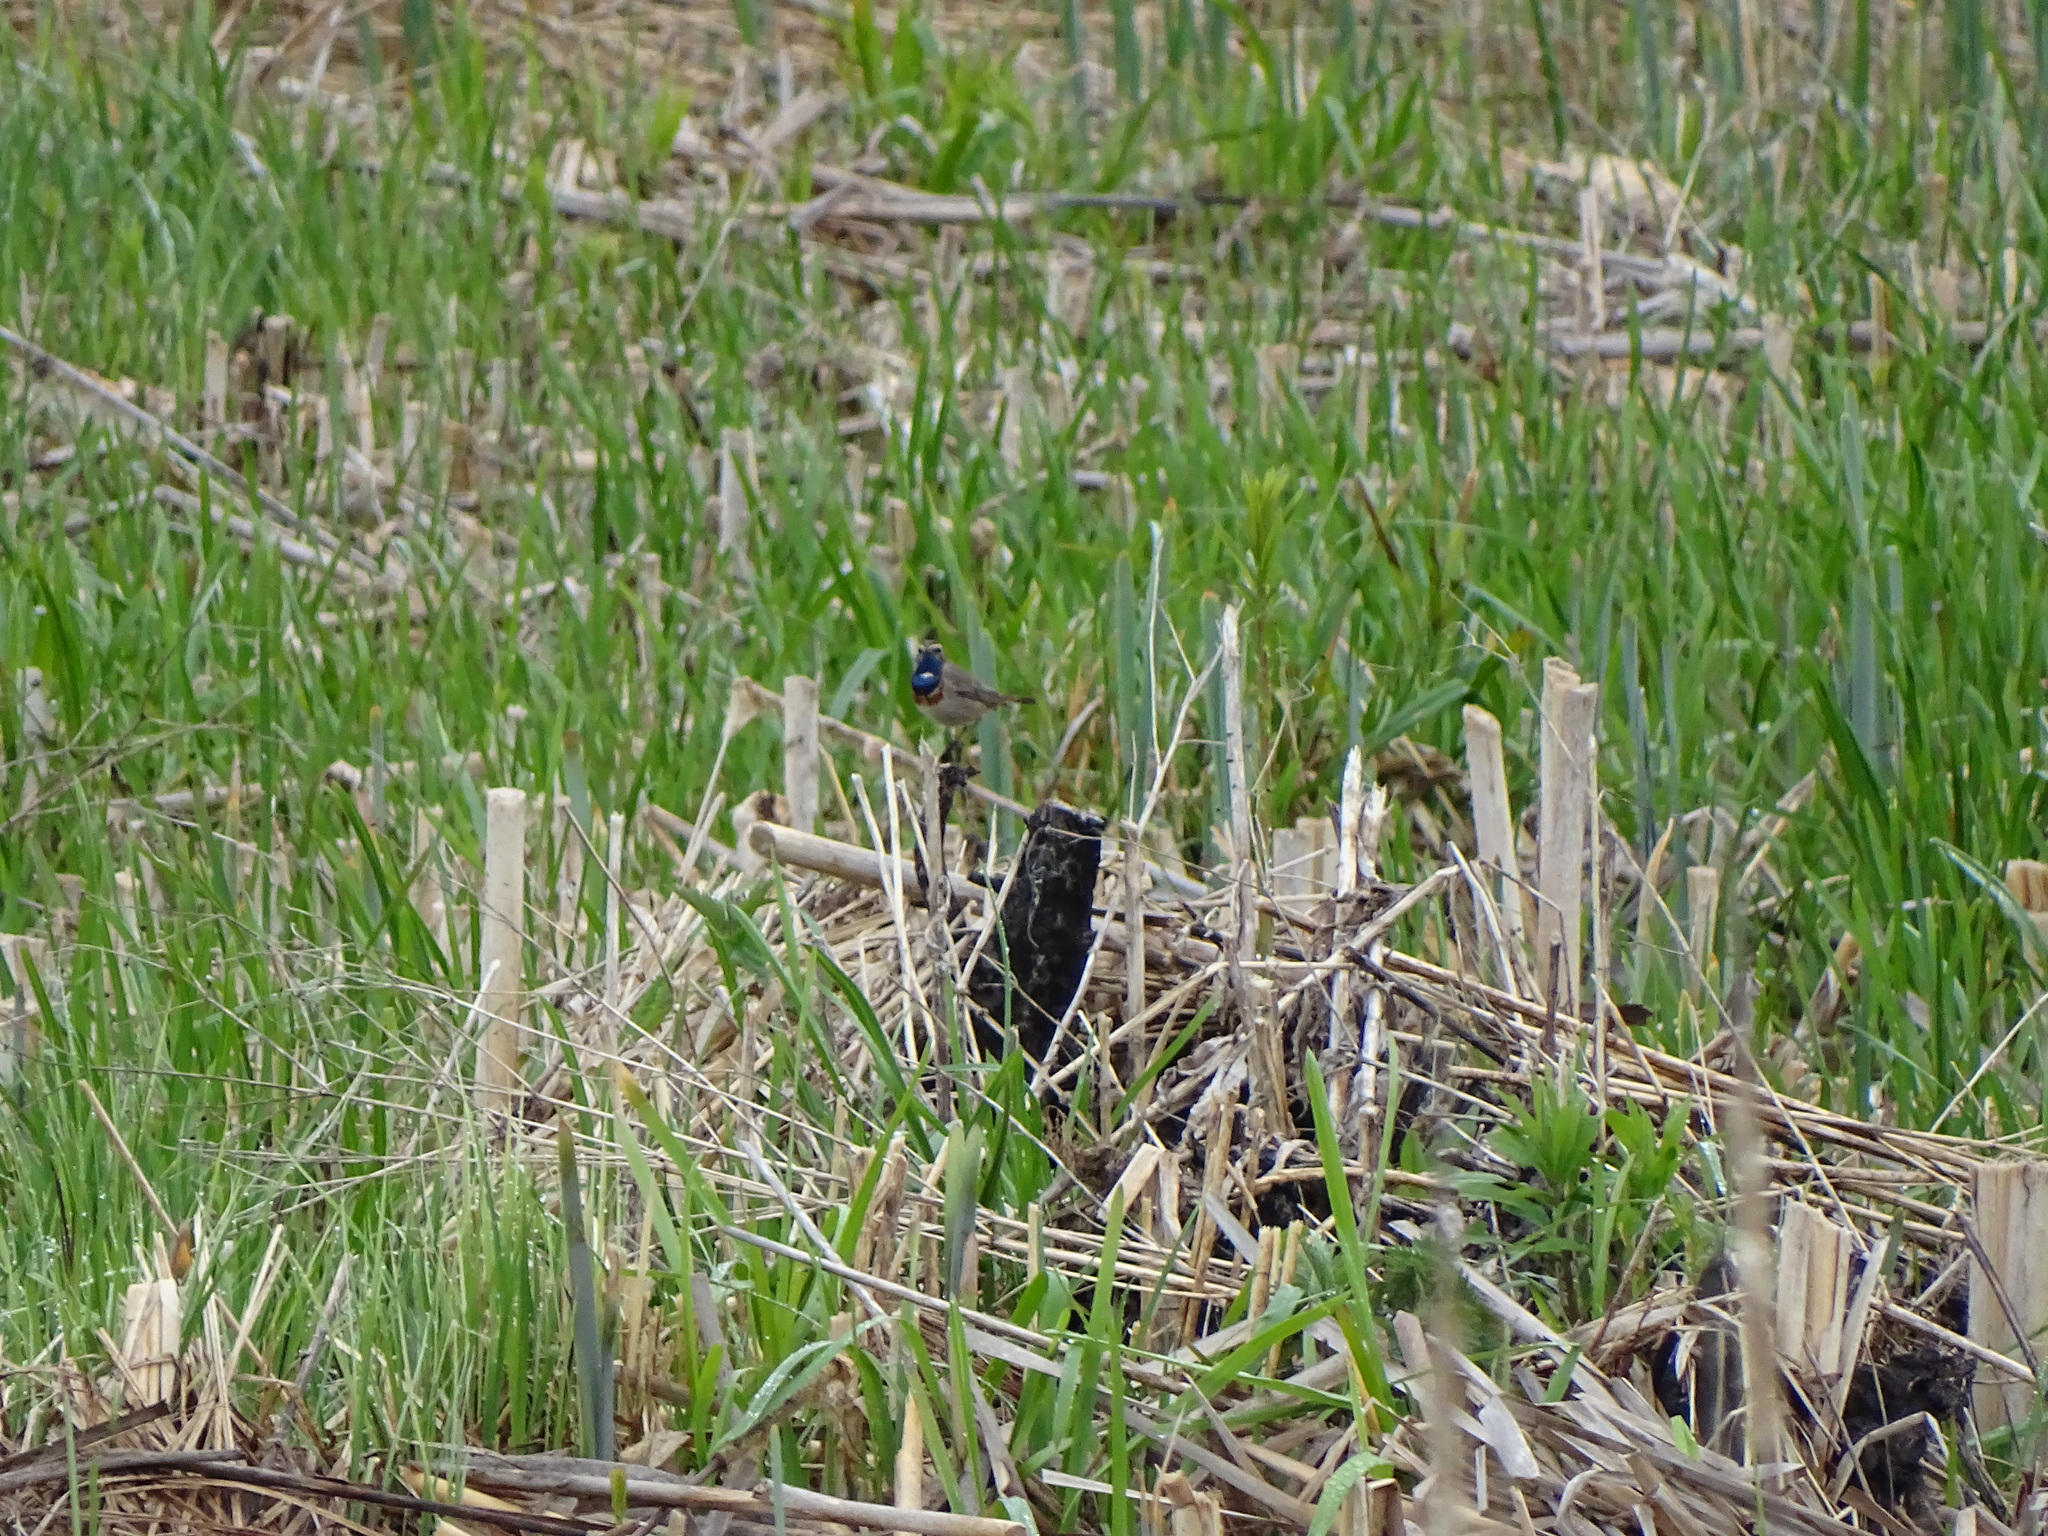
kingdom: Animalia
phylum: Chordata
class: Aves
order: Passeriformes
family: Muscicapidae
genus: Luscinia
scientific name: Luscinia svecica
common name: Bluethroat
